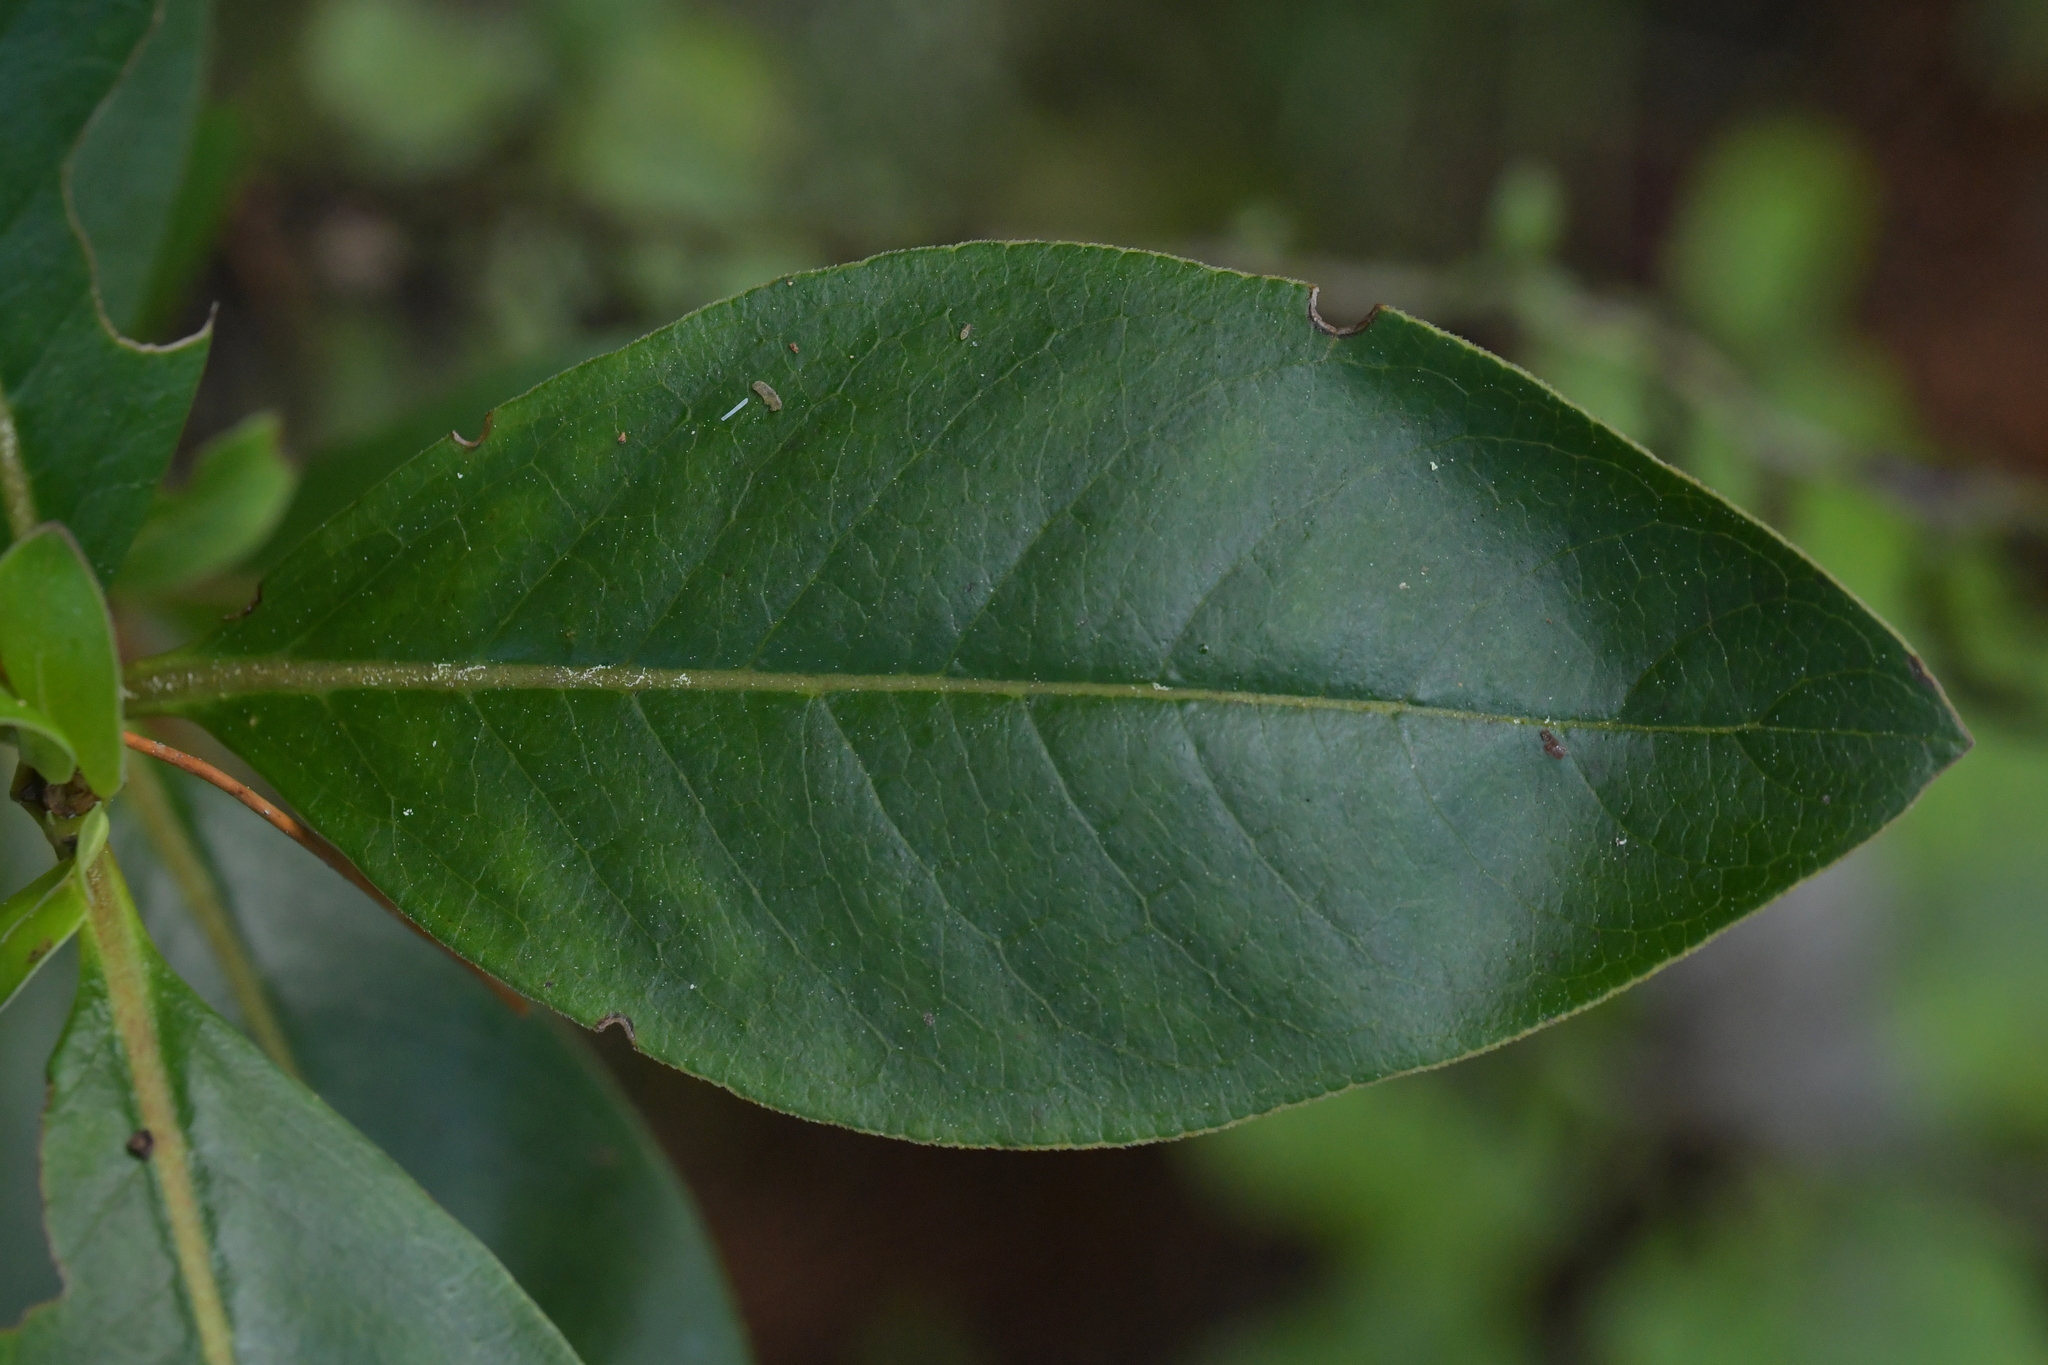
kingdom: Plantae
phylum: Tracheophyta
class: Magnoliopsida
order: Gentianales
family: Rubiaceae
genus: Coprosma
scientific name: Coprosma robusta
